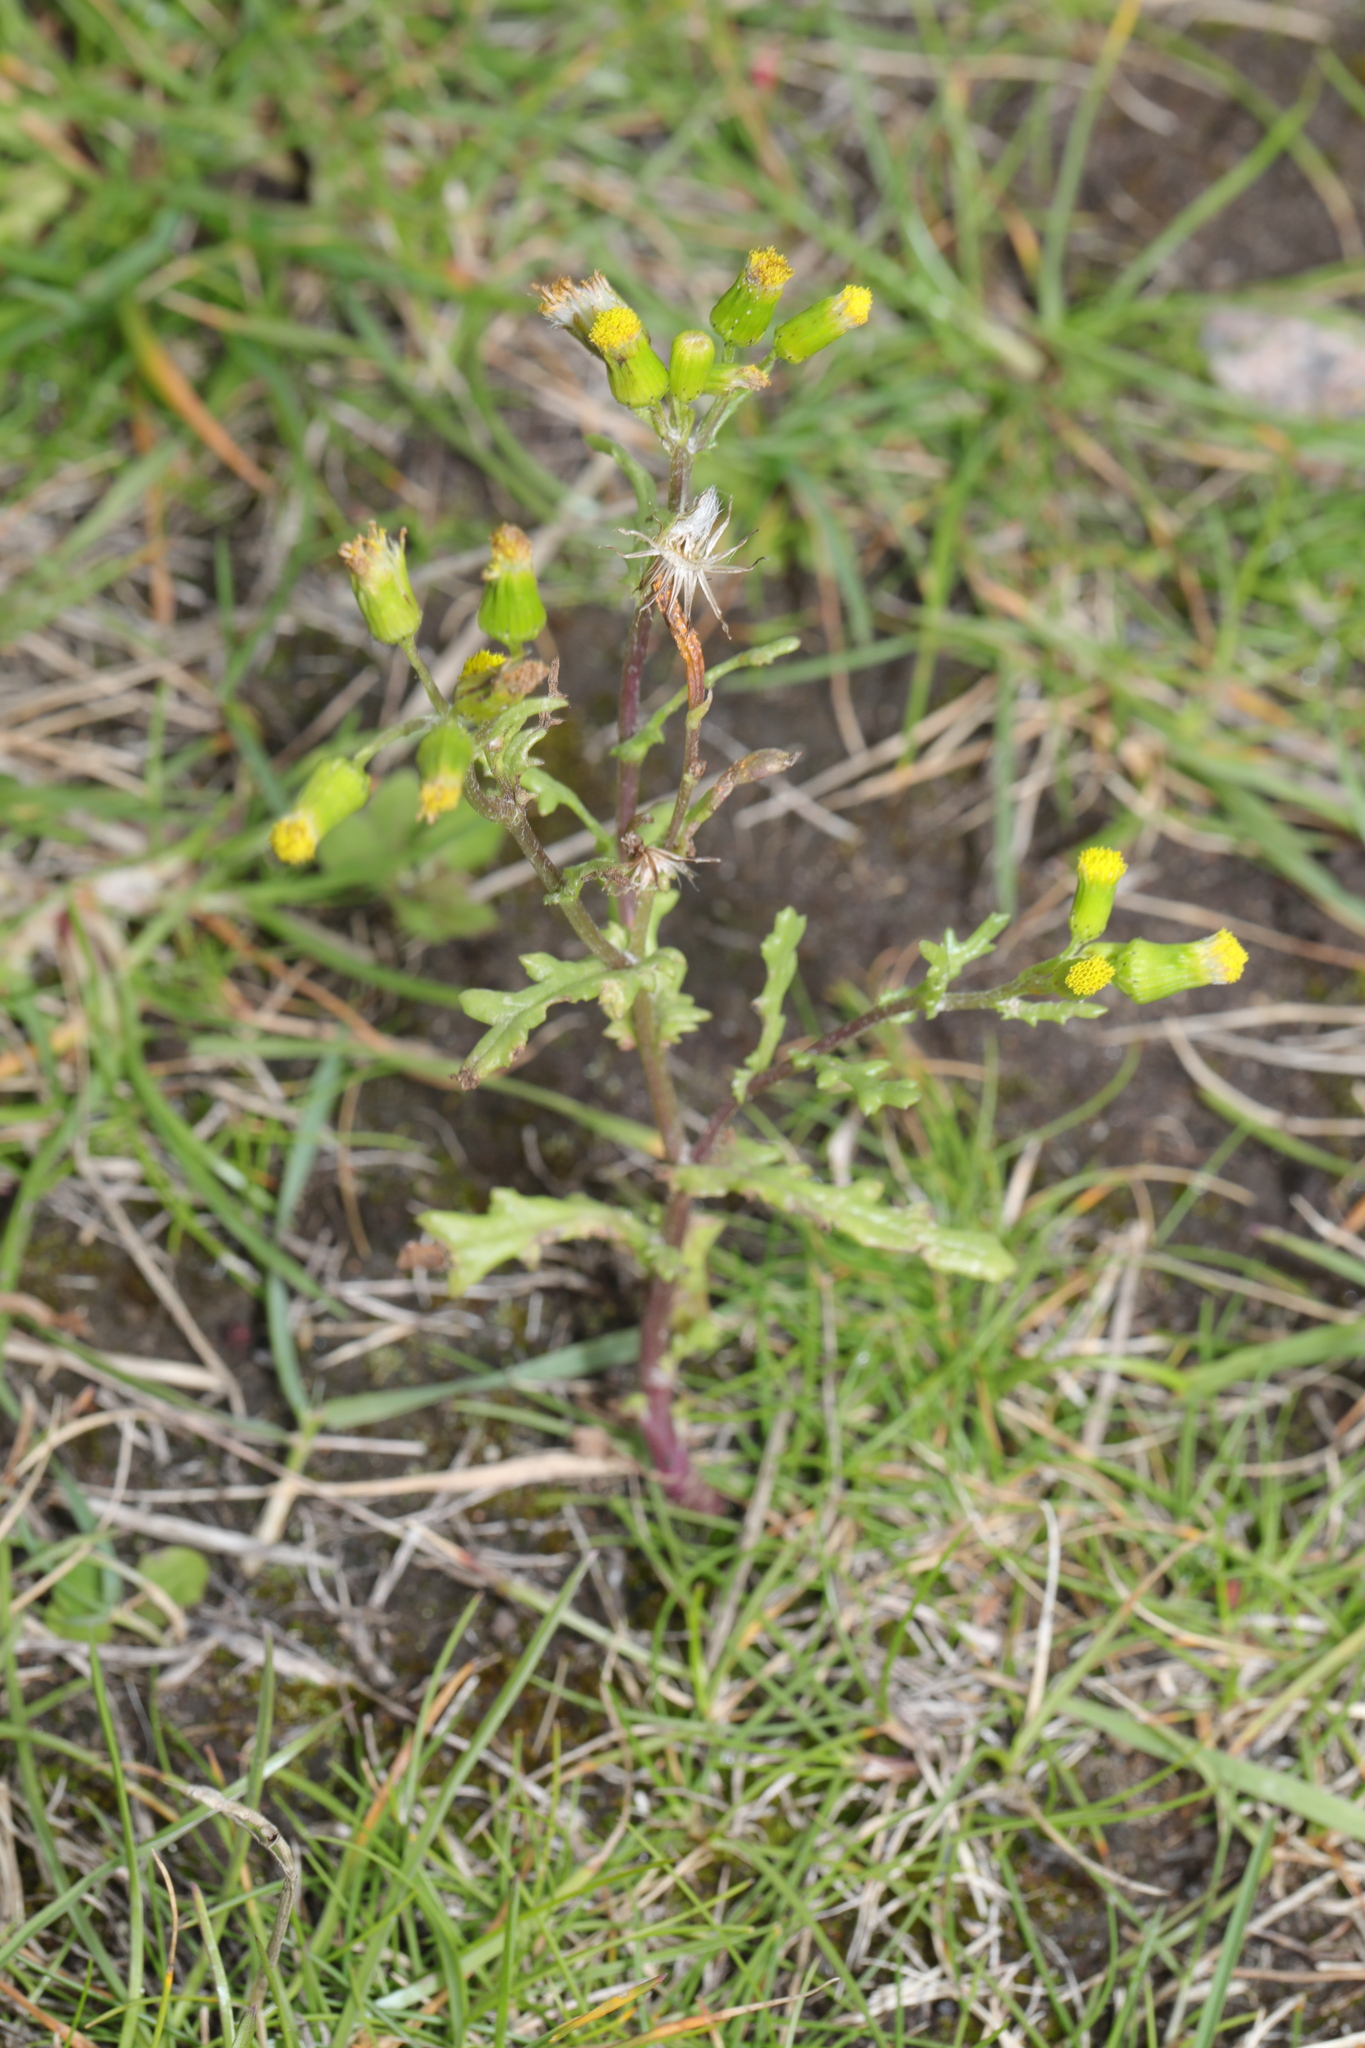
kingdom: Plantae
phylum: Tracheophyta
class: Magnoliopsida
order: Asterales
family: Asteraceae
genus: Senecio
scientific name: Senecio vulgaris
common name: Old-man-in-the-spring
